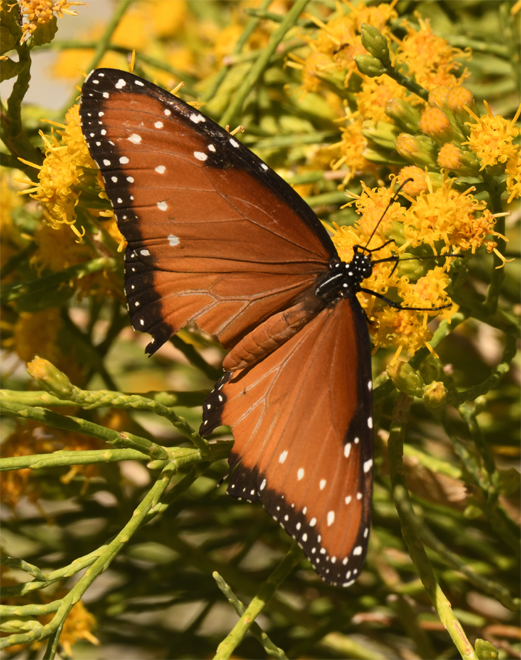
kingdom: Animalia
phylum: Arthropoda
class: Insecta
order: Lepidoptera
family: Nymphalidae
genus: Danaus
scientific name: Danaus gilippus
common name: Queen
